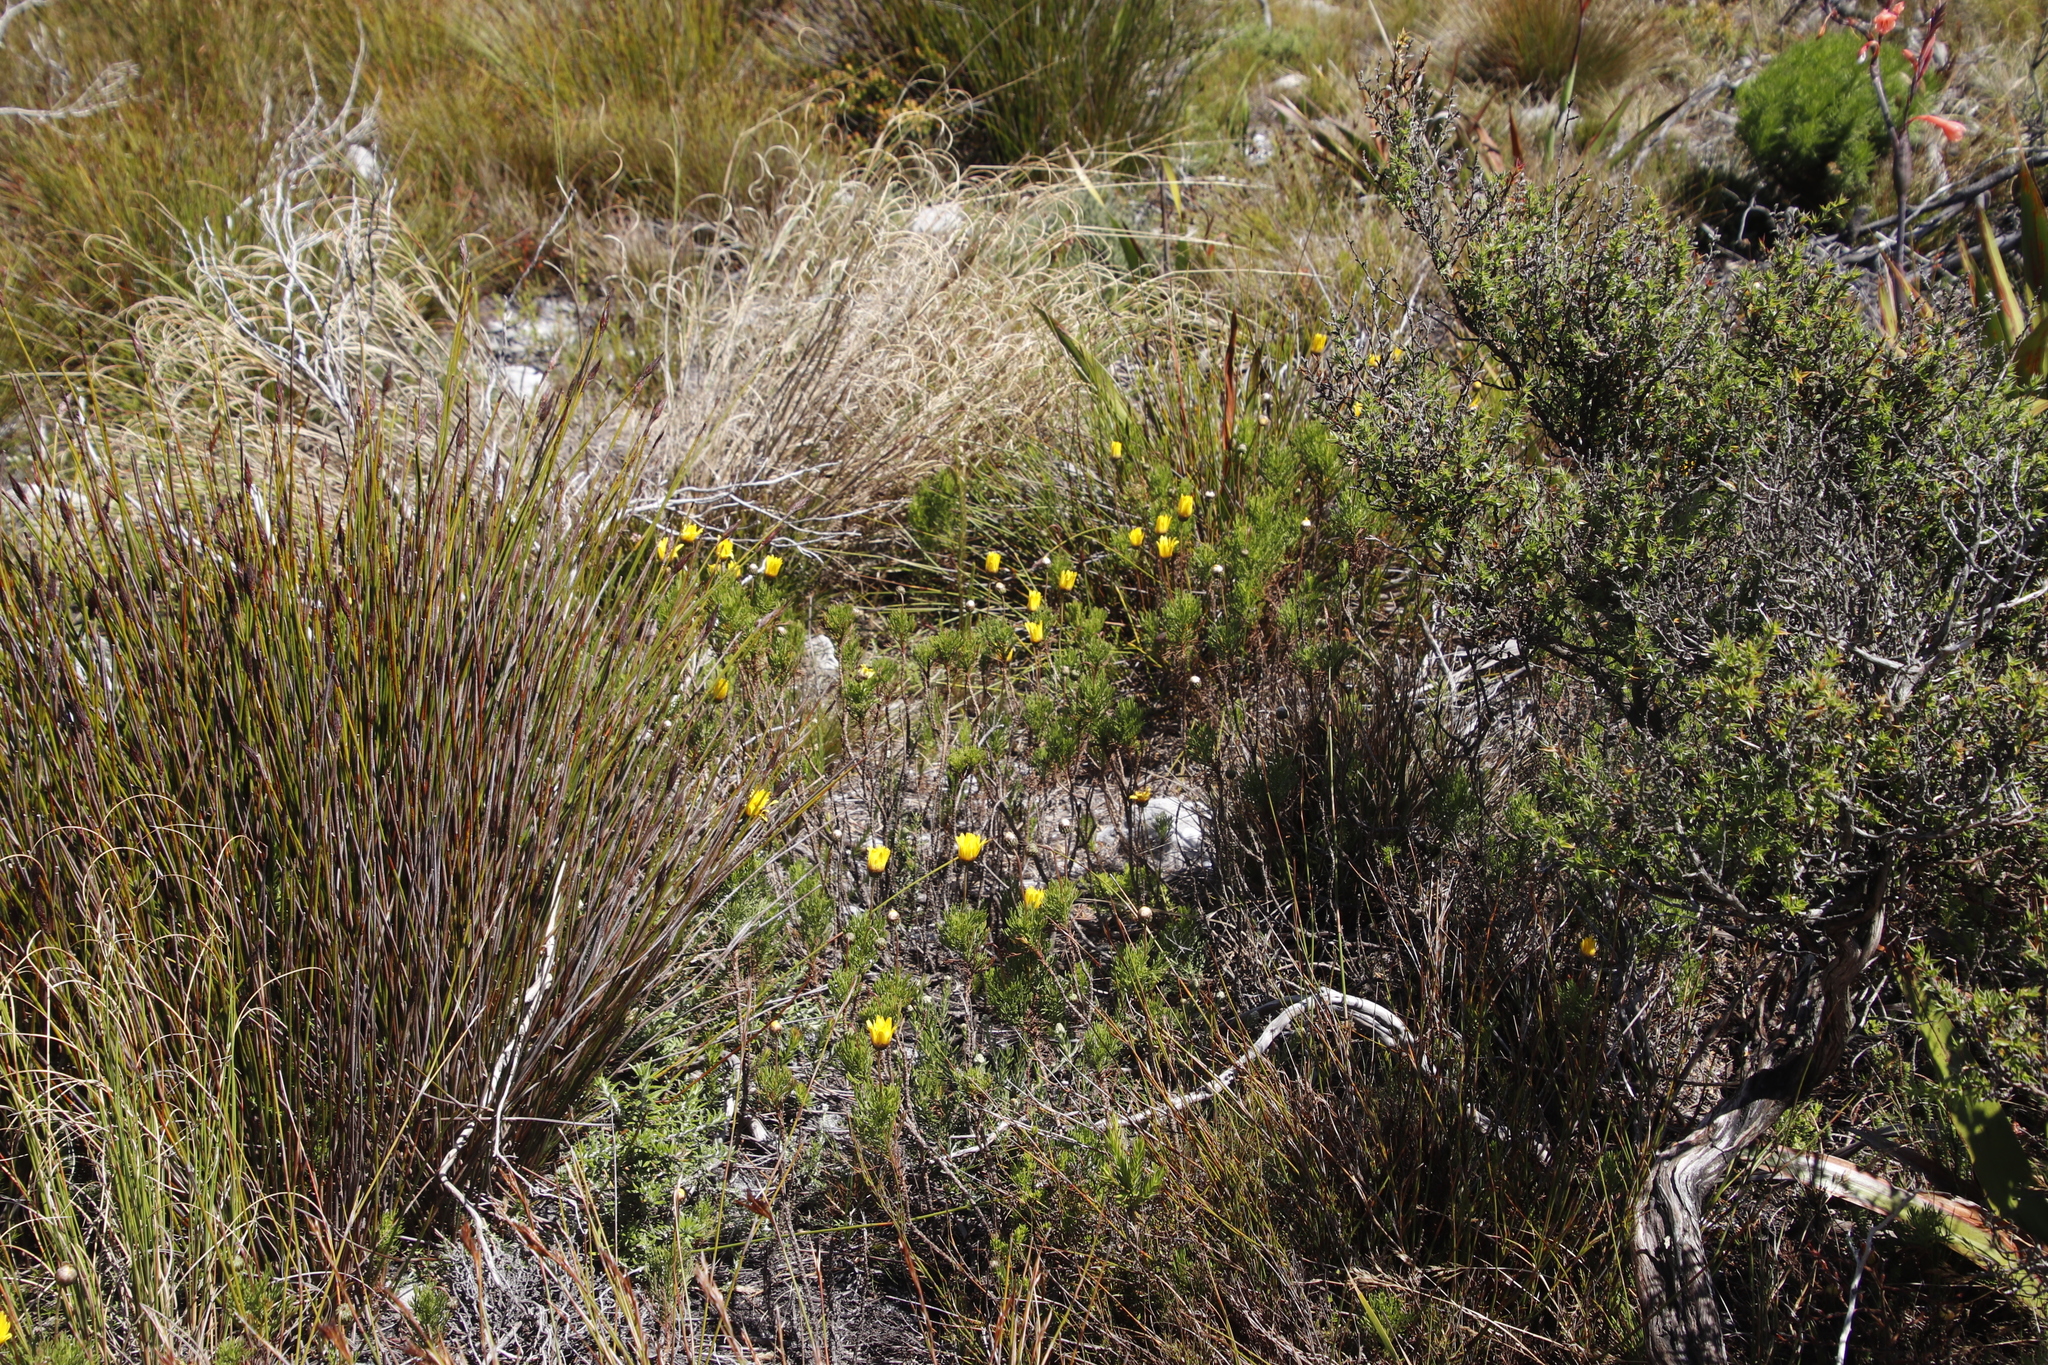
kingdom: Plantae
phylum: Tracheophyta
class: Magnoliopsida
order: Asterales
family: Asteraceae
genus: Euryops
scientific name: Euryops abrotanifolius
